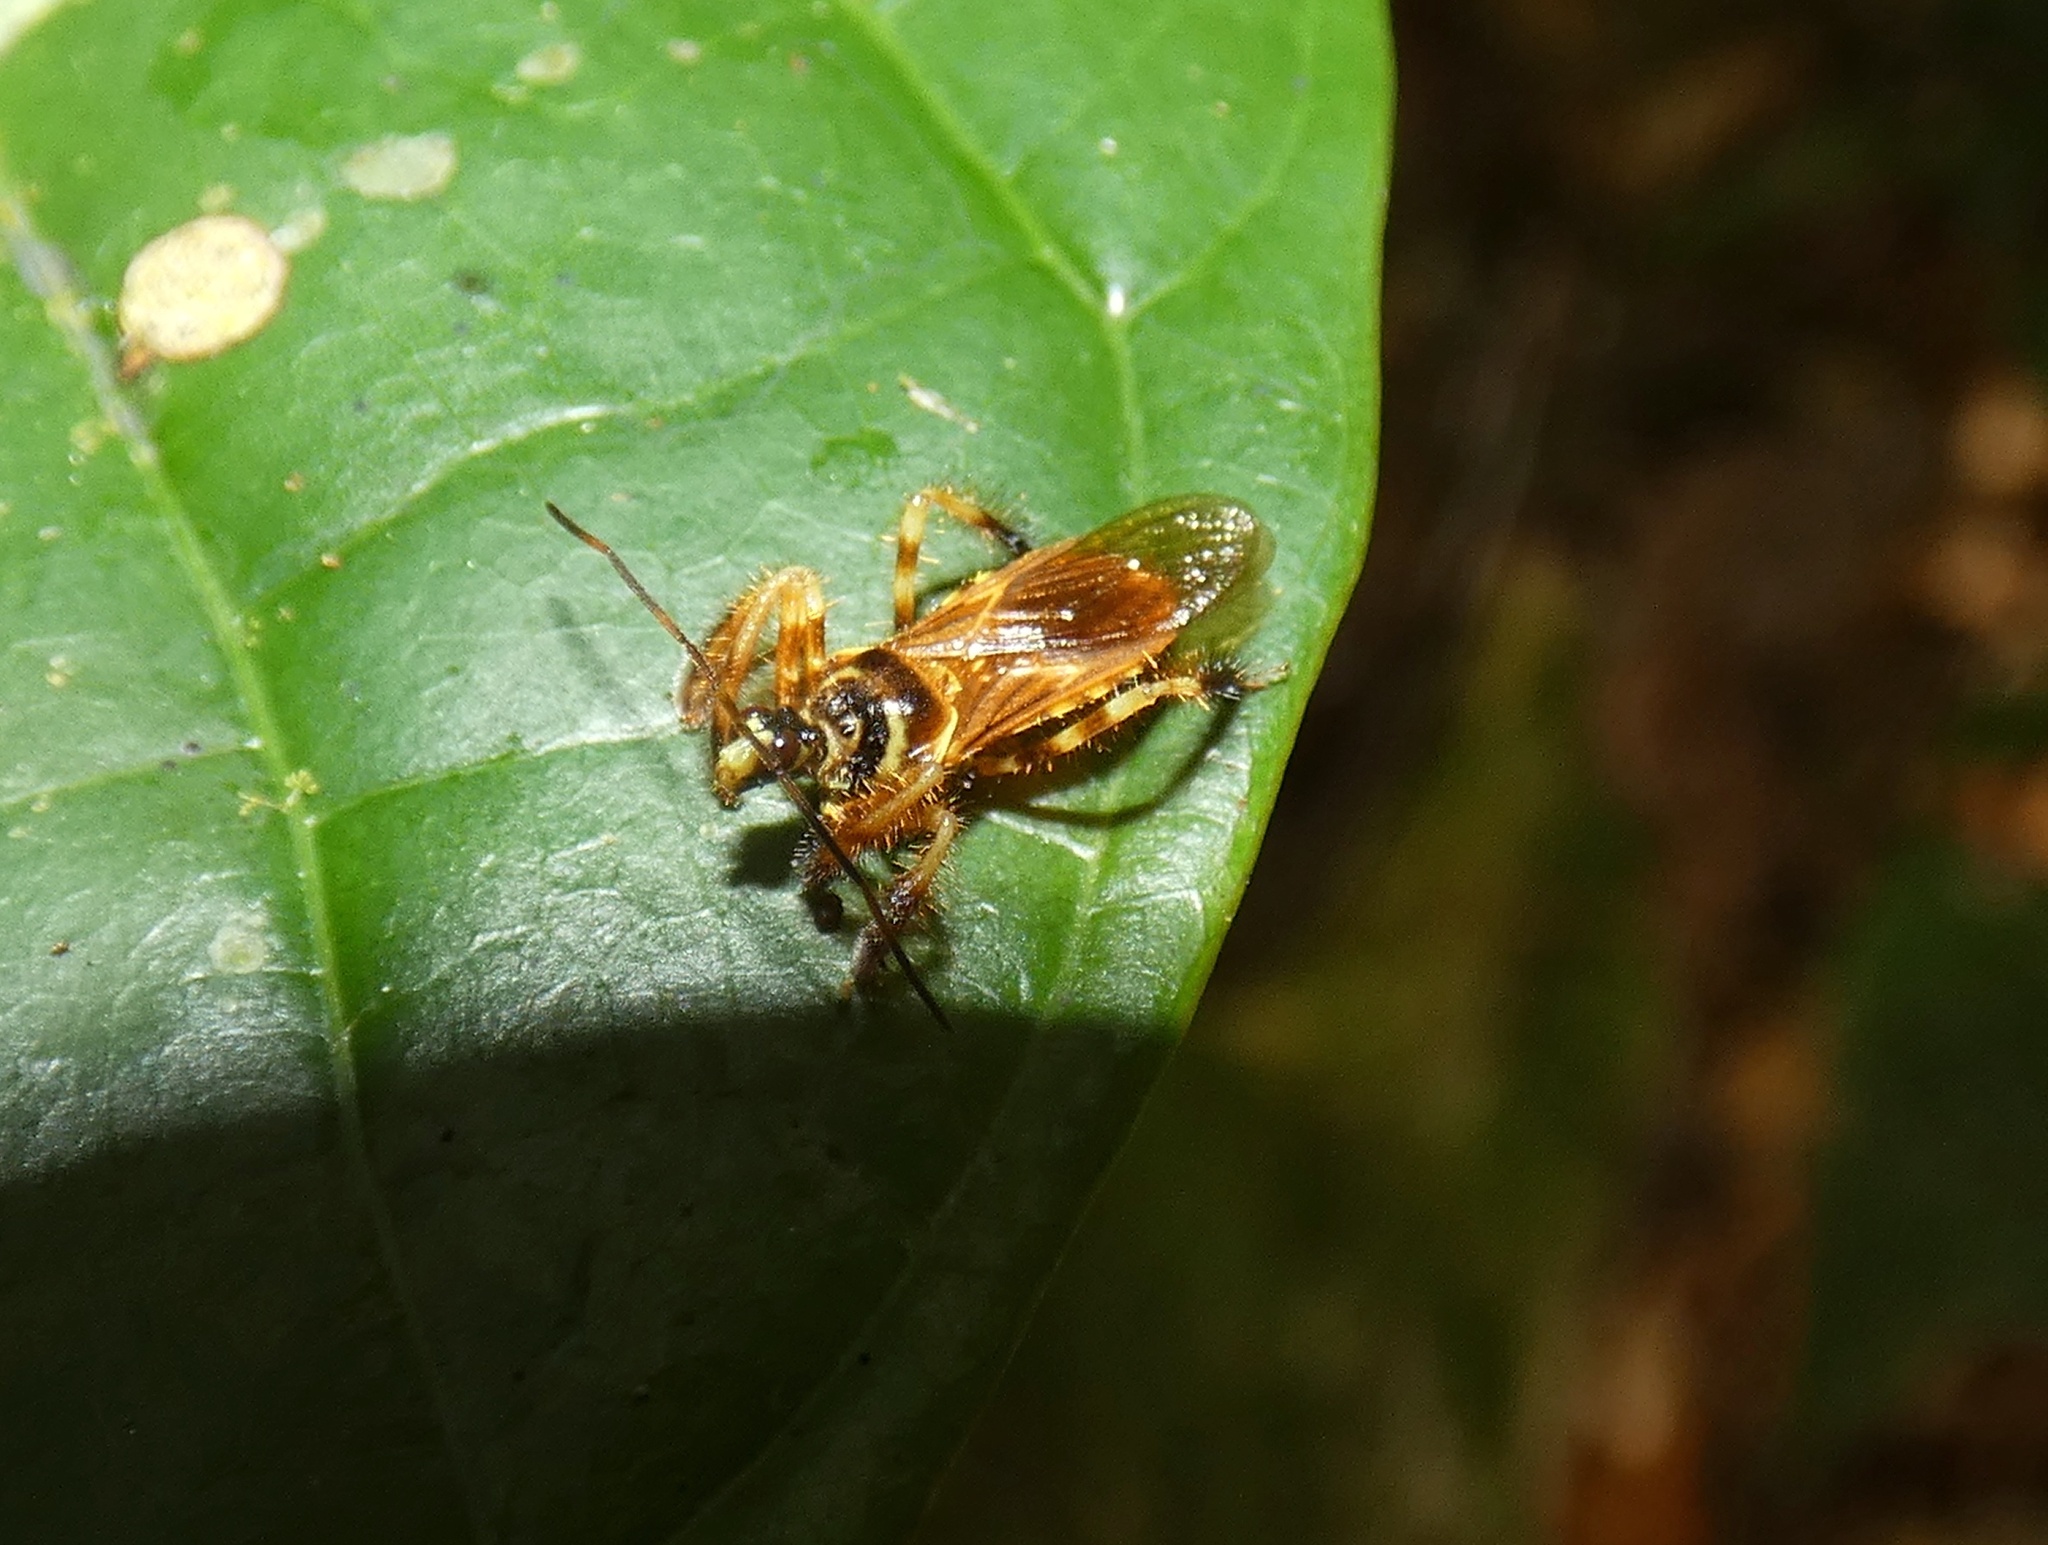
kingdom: Animalia
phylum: Arthropoda
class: Insecta
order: Hemiptera
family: Reduviidae
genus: Agriocoris
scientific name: Agriocoris flavipes
